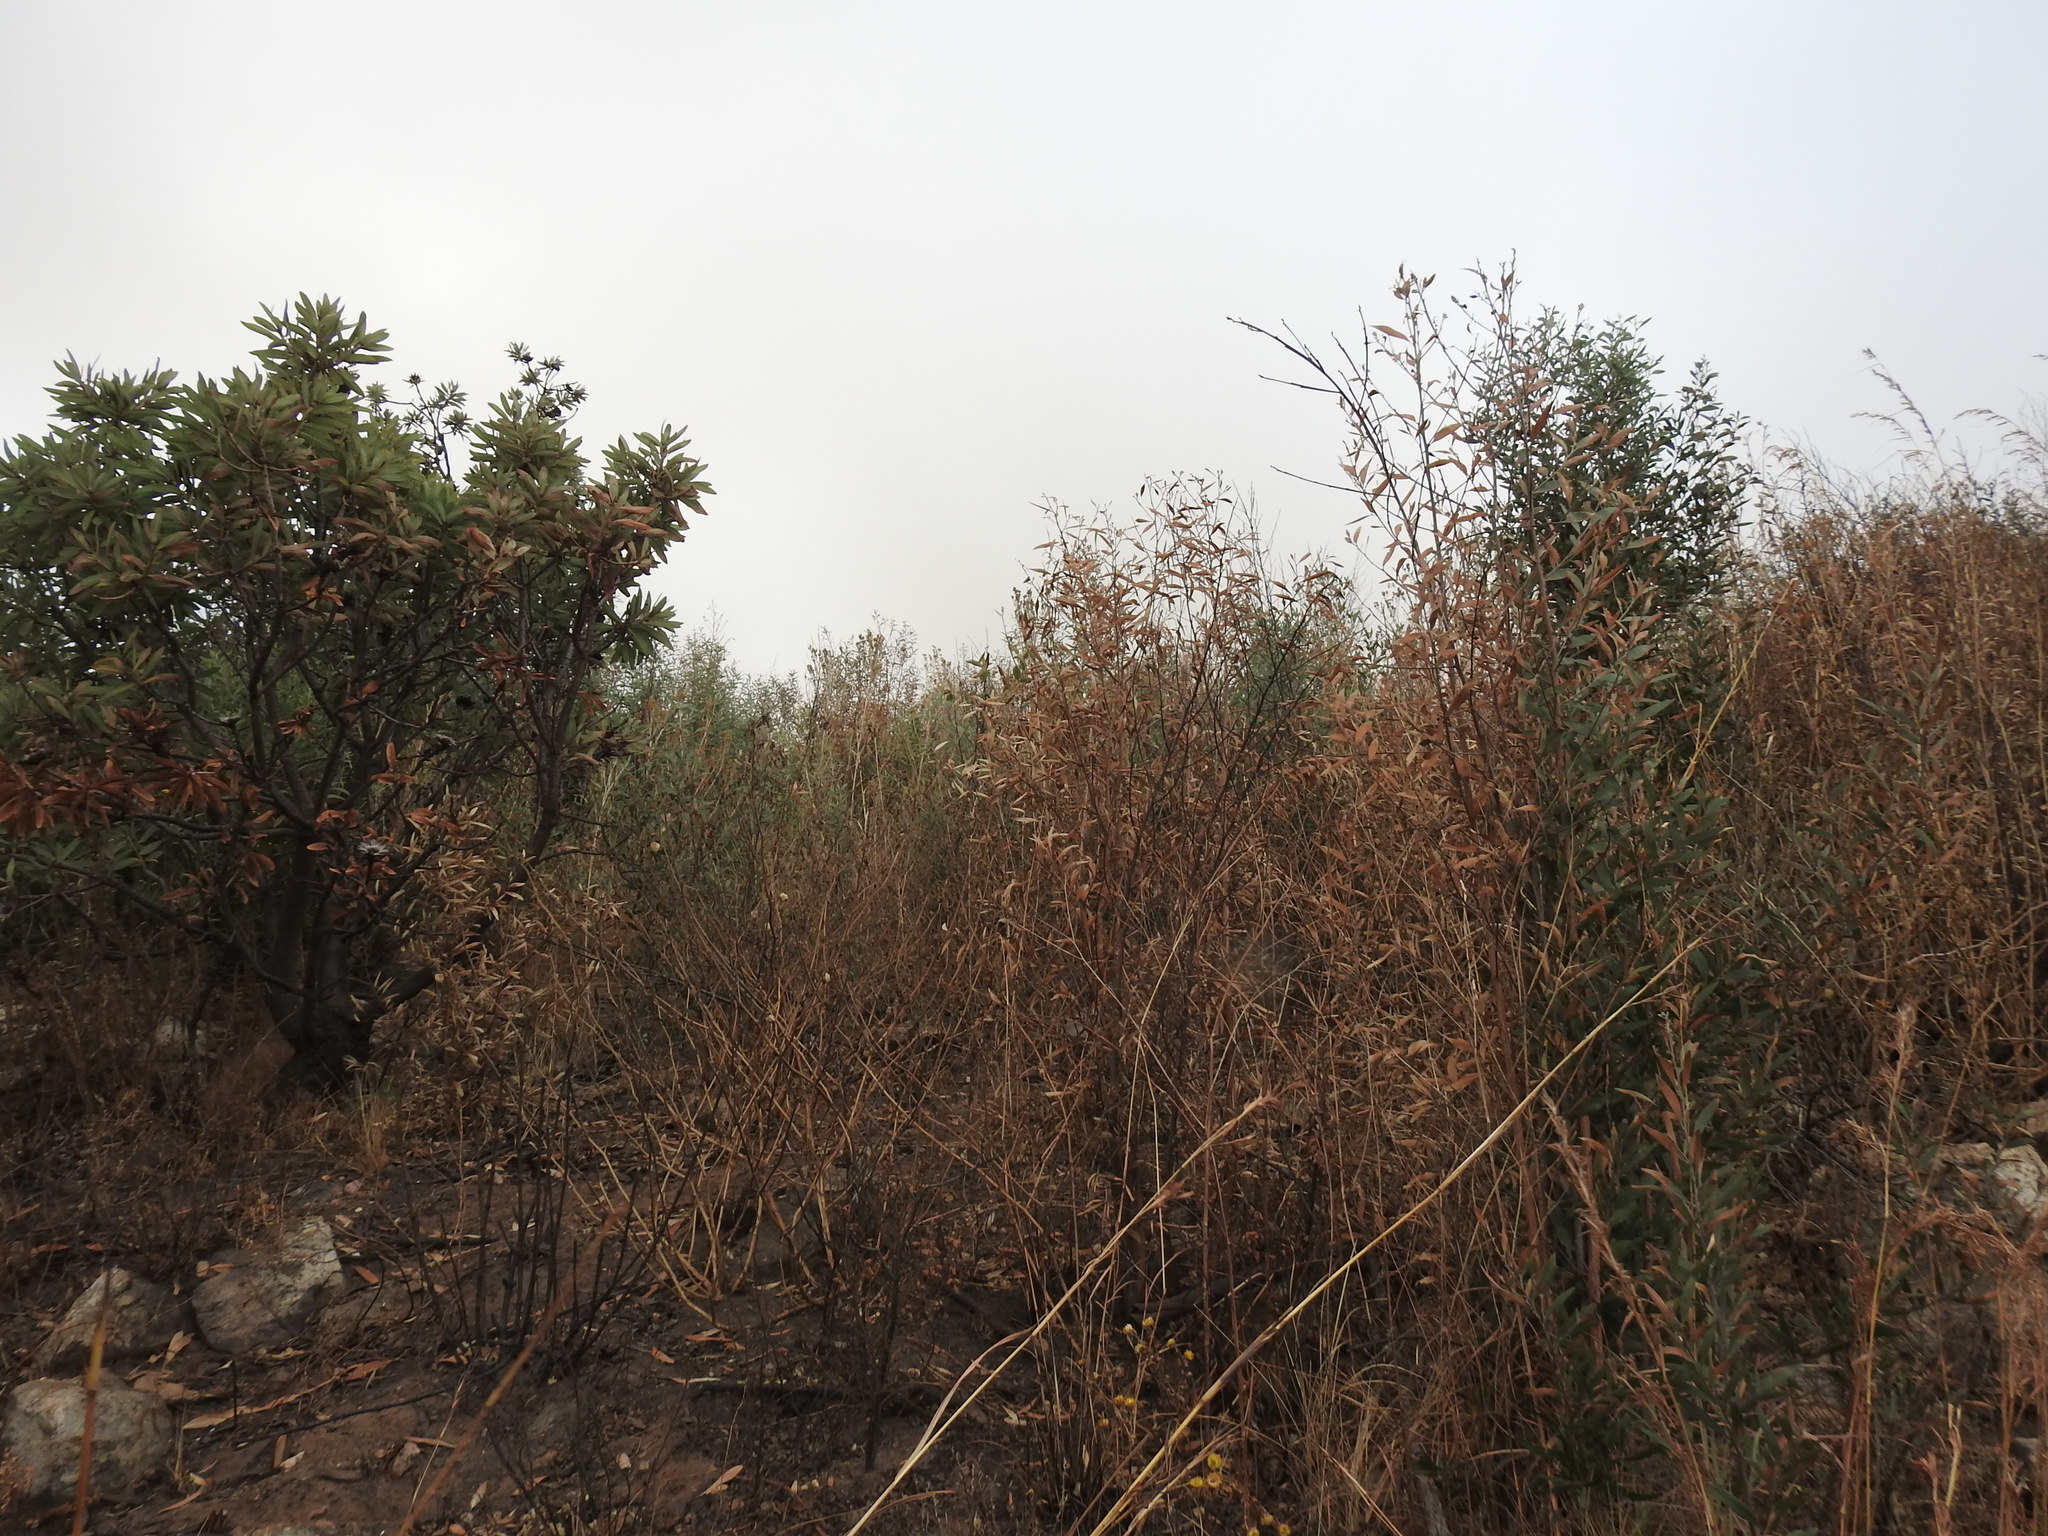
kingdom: Plantae
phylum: Tracheophyta
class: Magnoliopsida
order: Fabales
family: Fabaceae
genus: Acacia
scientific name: Acacia melanoxylon
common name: Blackwood
